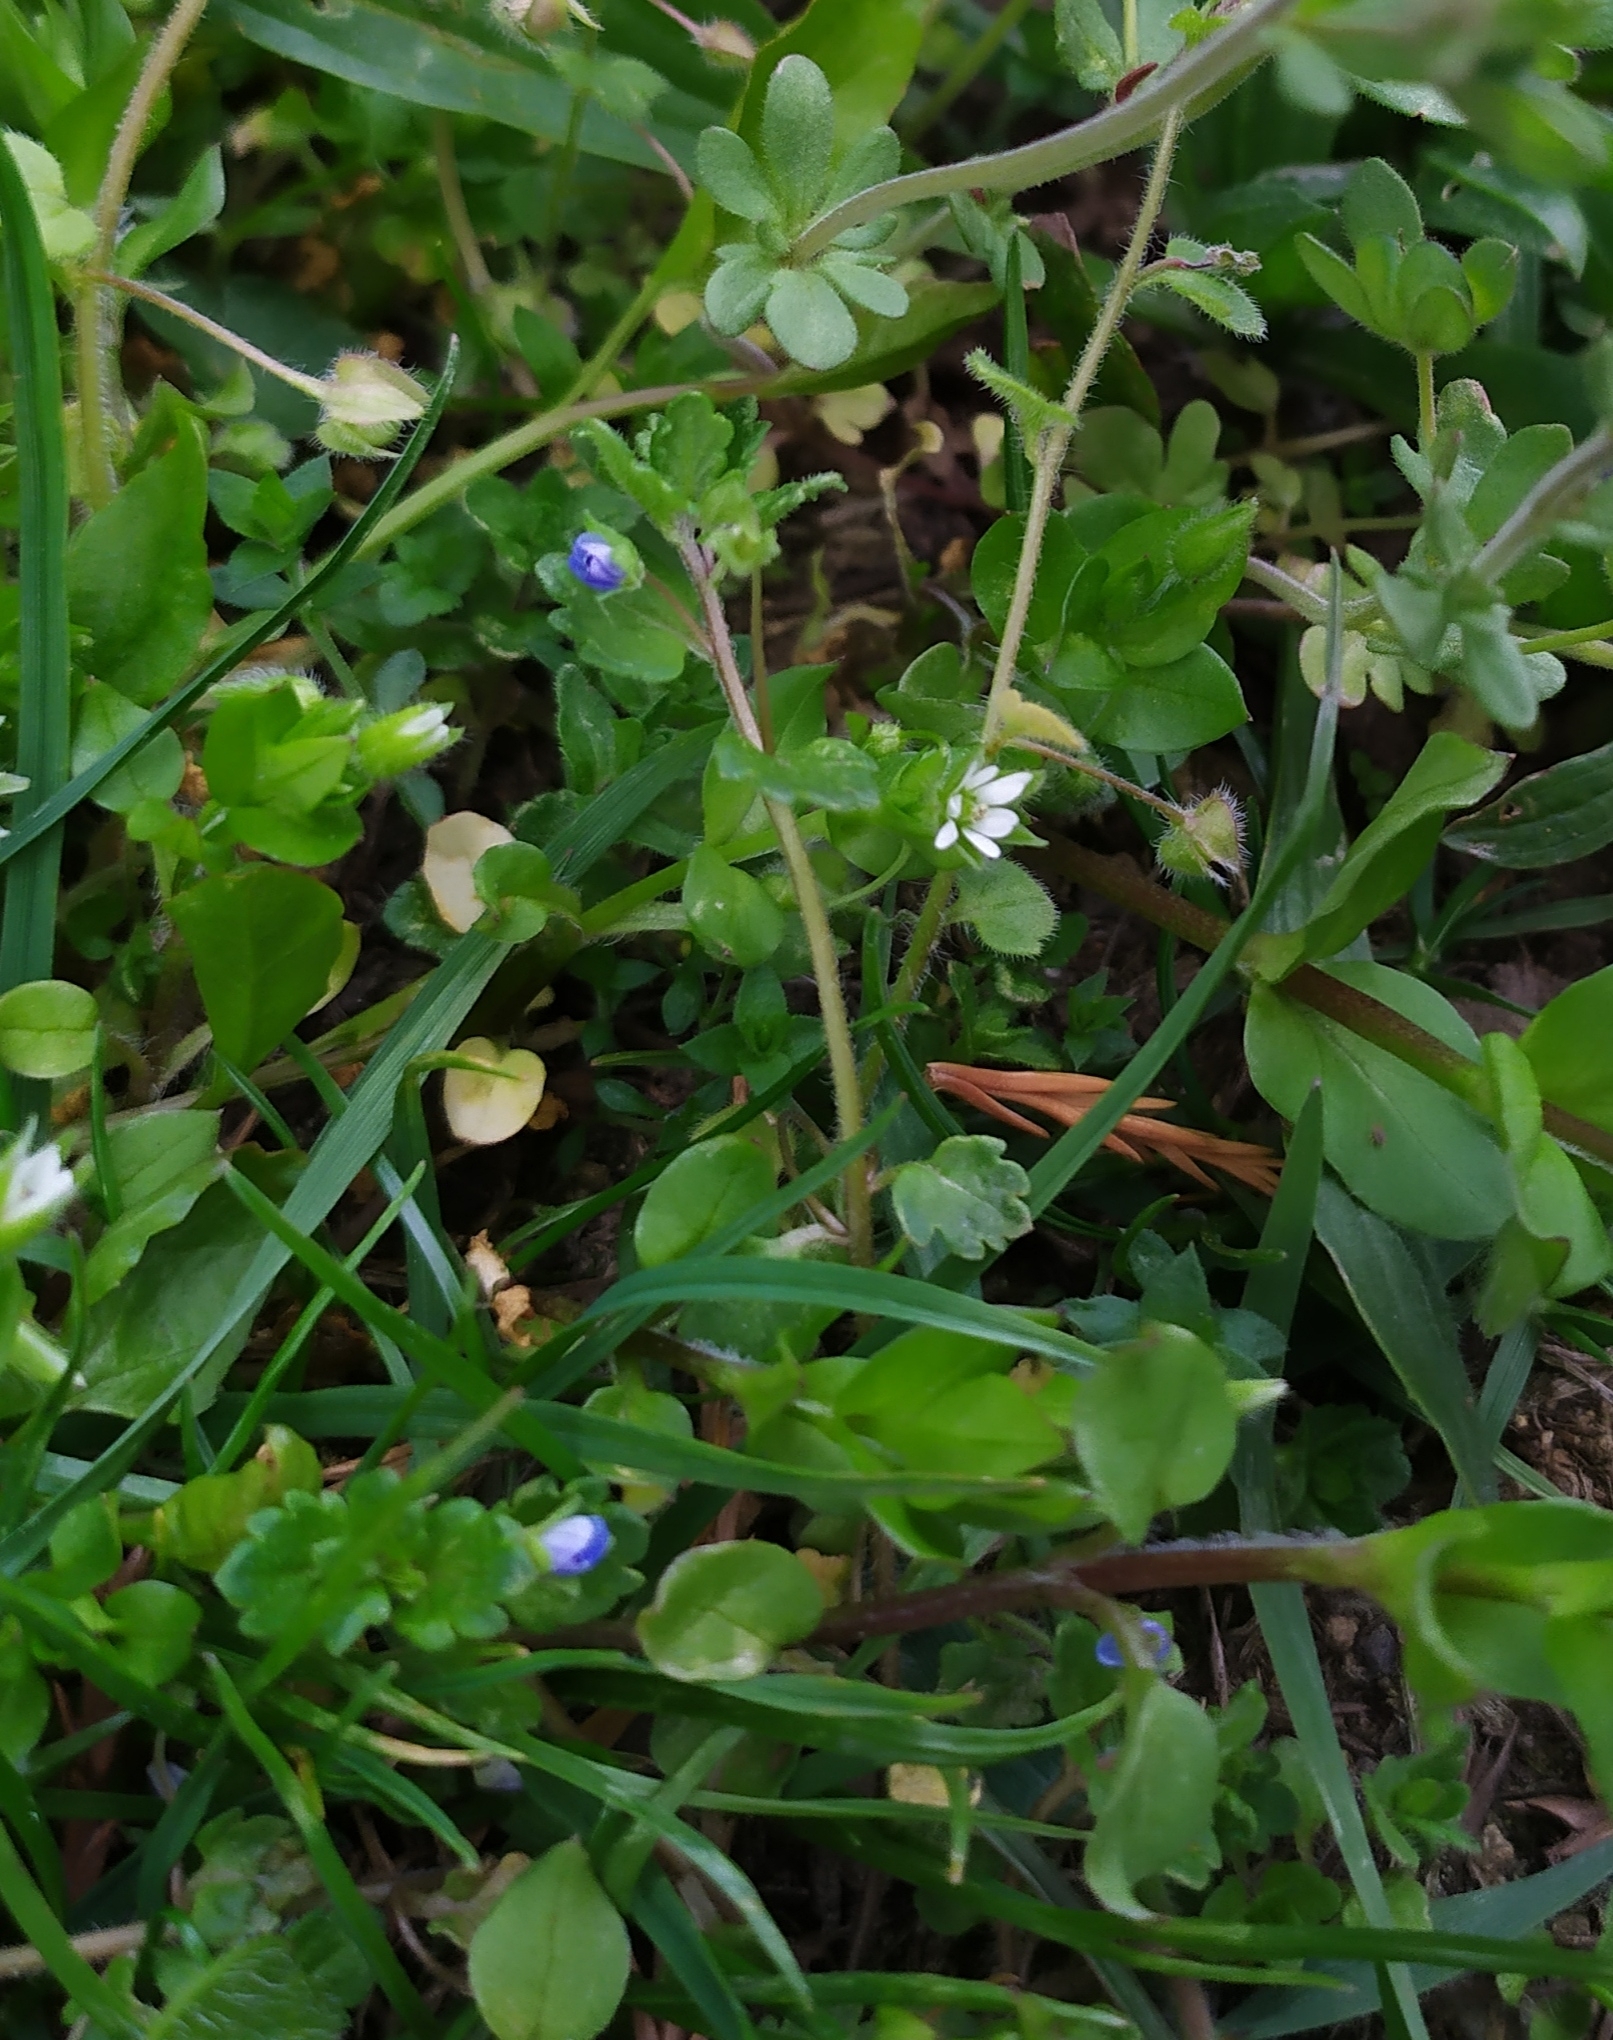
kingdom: Plantae
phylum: Tracheophyta
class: Magnoliopsida
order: Lamiales
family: Plantaginaceae
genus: Veronica
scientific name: Veronica polita
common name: Grey field-speedwell
